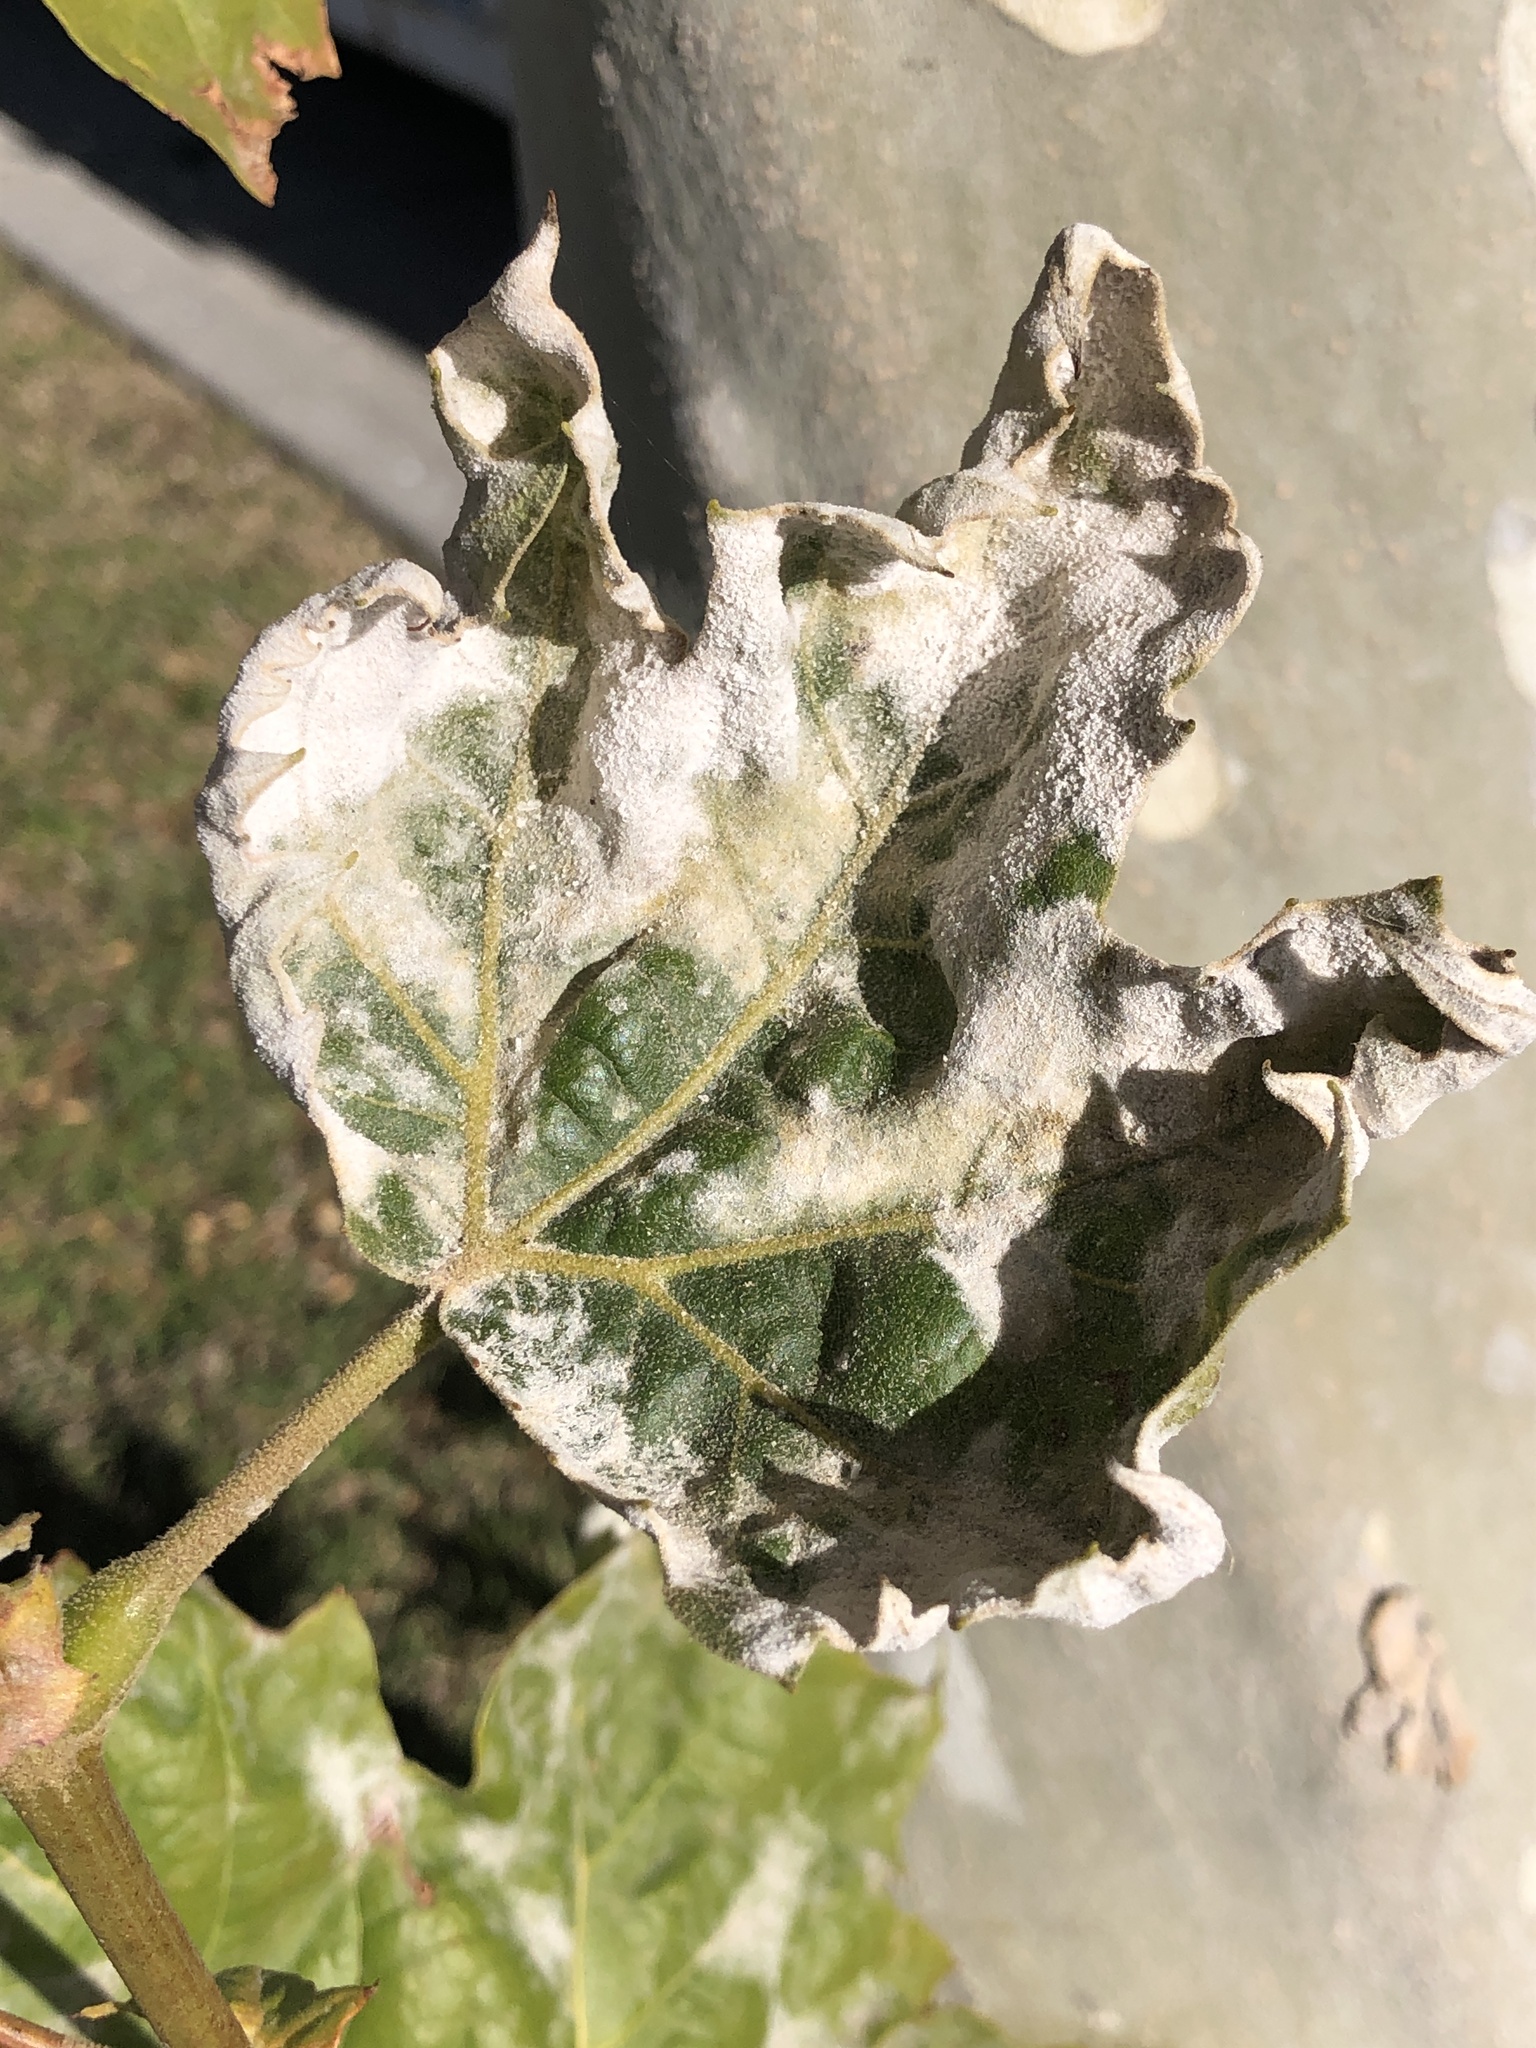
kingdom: Fungi
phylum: Ascomycota
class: Leotiomycetes
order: Helotiales
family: Erysiphaceae
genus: Erysiphe
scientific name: Erysiphe platani
